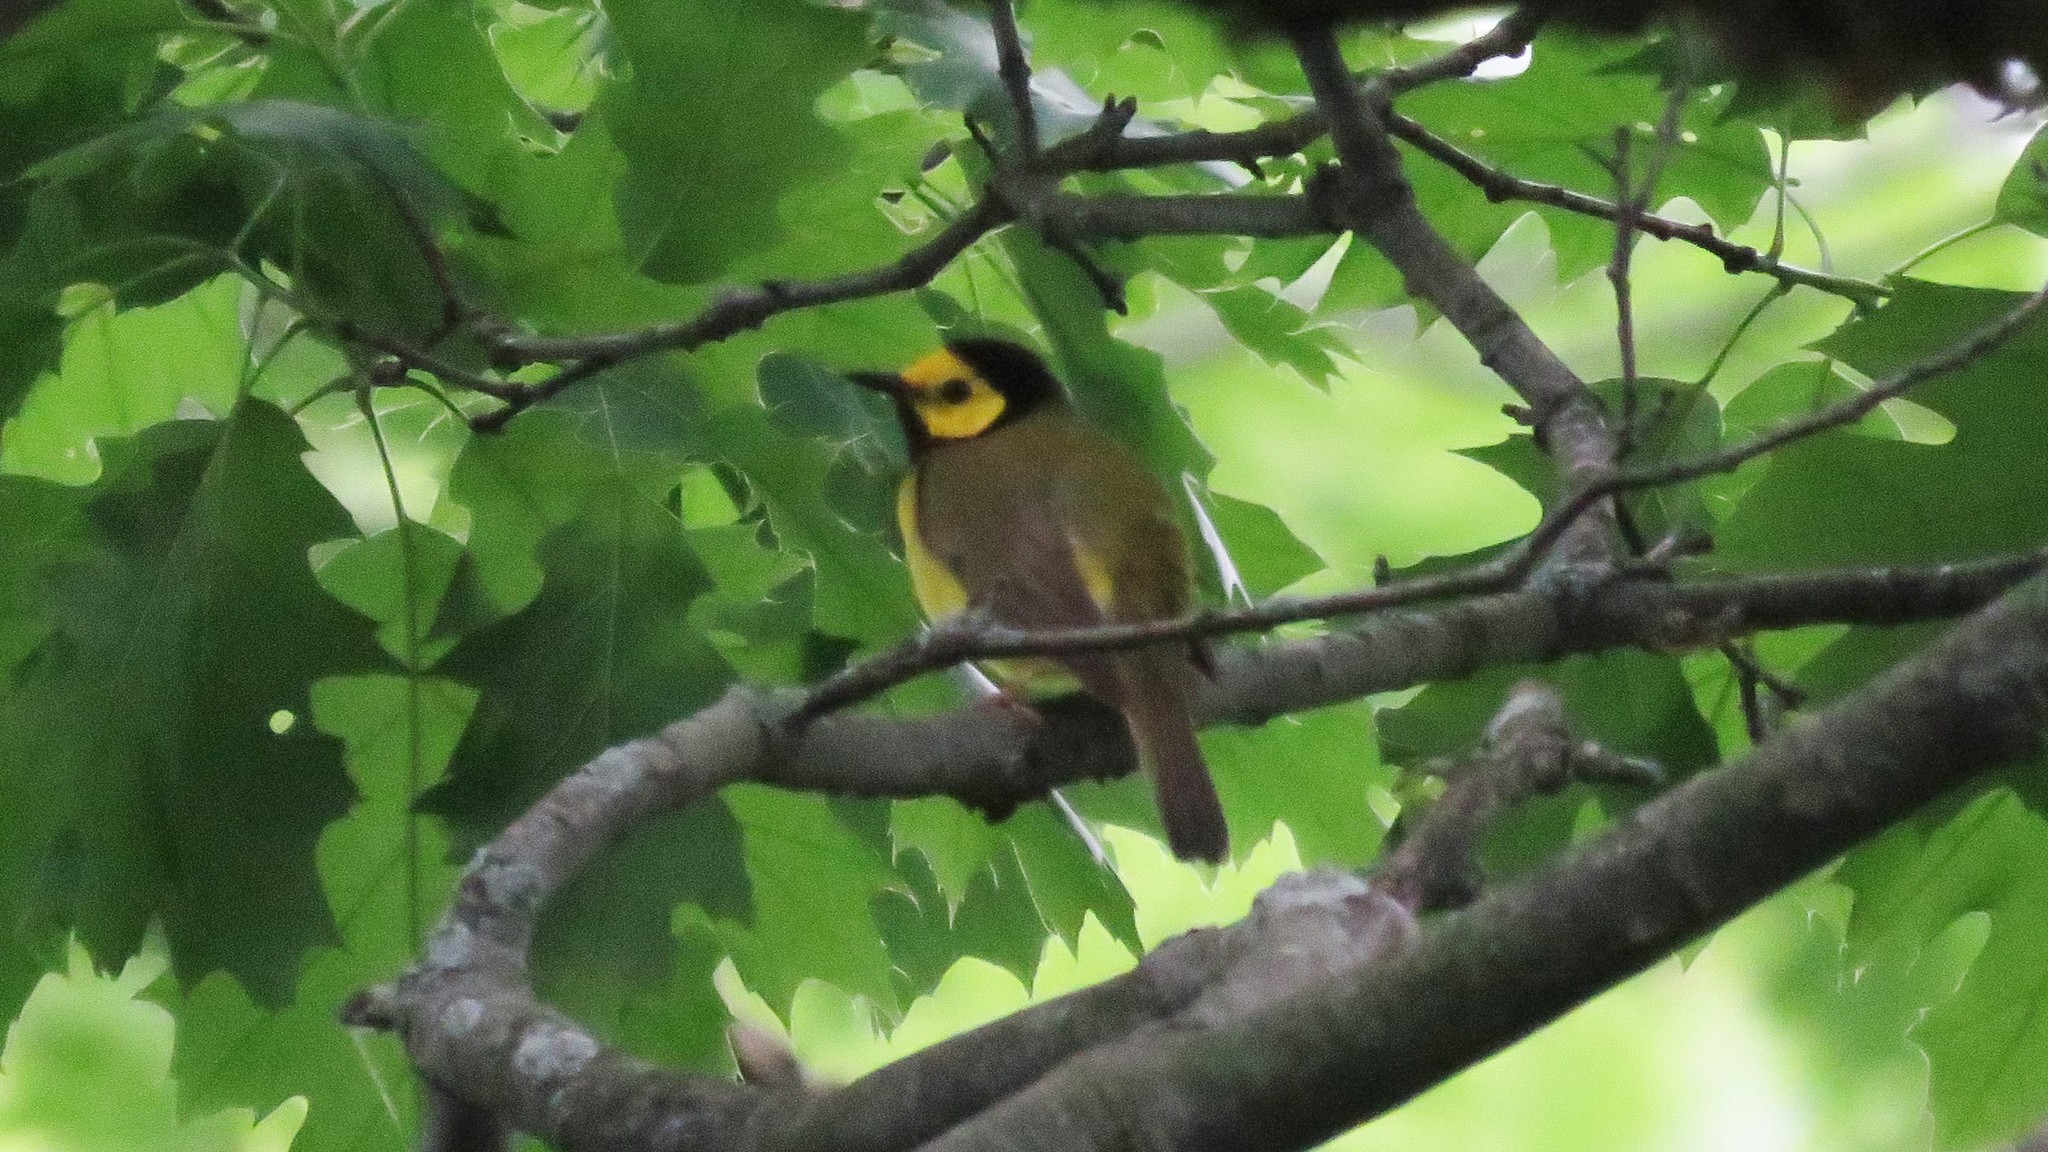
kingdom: Animalia
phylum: Chordata
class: Aves
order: Passeriformes
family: Parulidae
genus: Setophaga
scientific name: Setophaga citrina
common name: Hooded warbler
